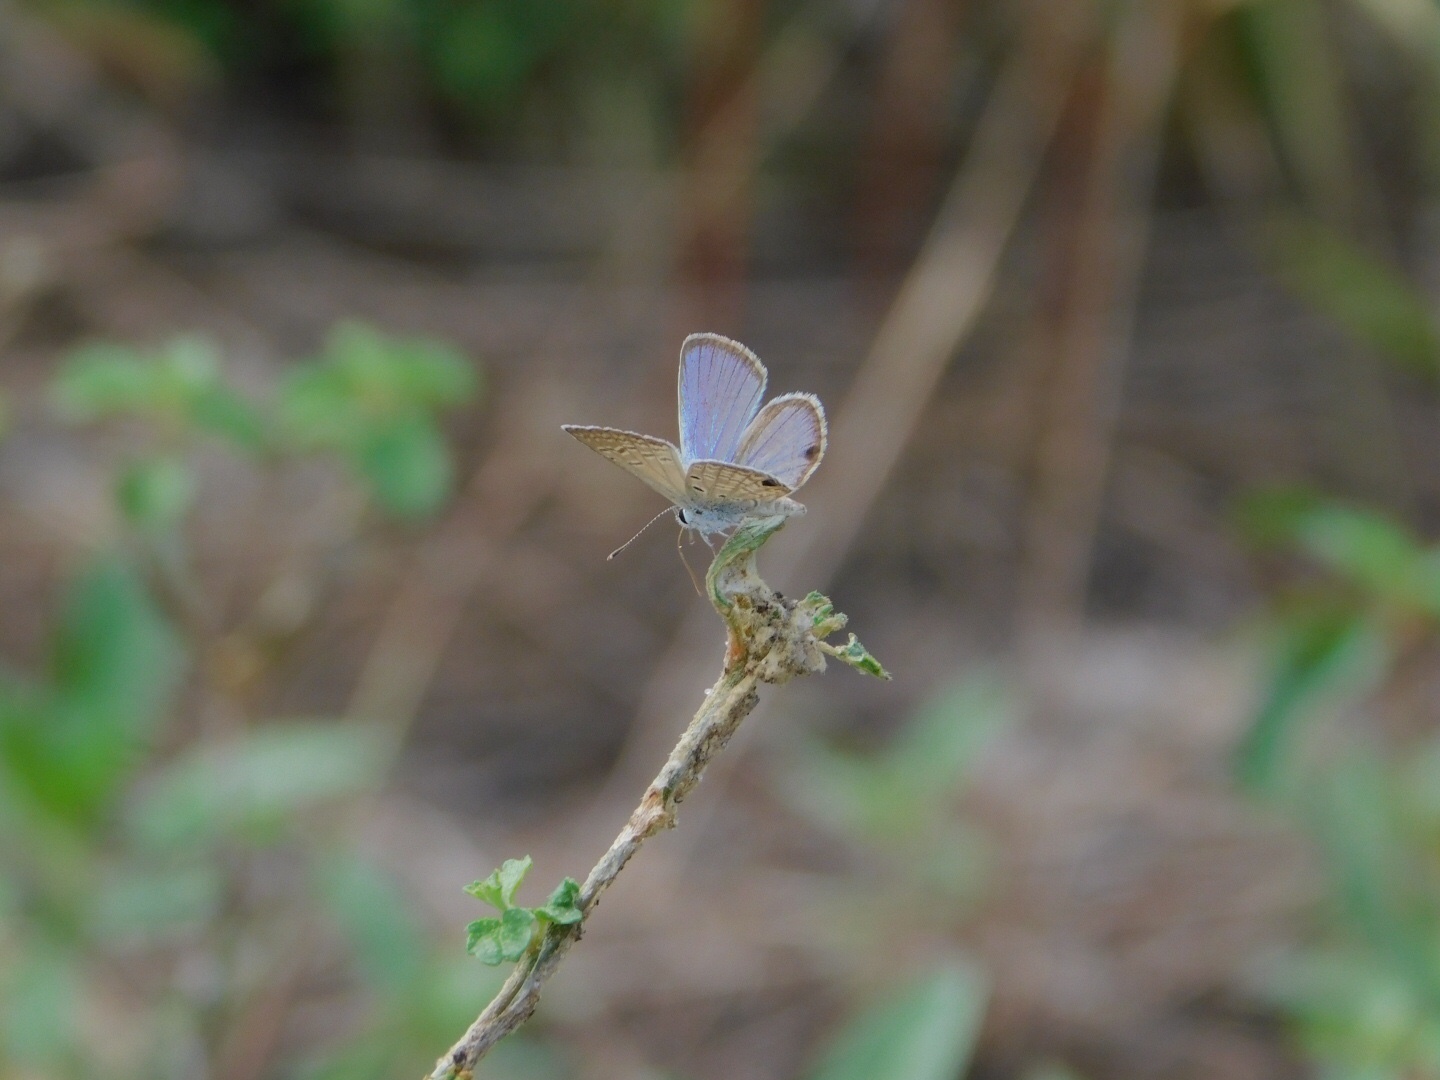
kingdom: Animalia
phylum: Arthropoda
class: Insecta
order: Lepidoptera
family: Lycaenidae
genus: Hemiargus
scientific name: Hemiargus ceraunus
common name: Ceraunus blue
